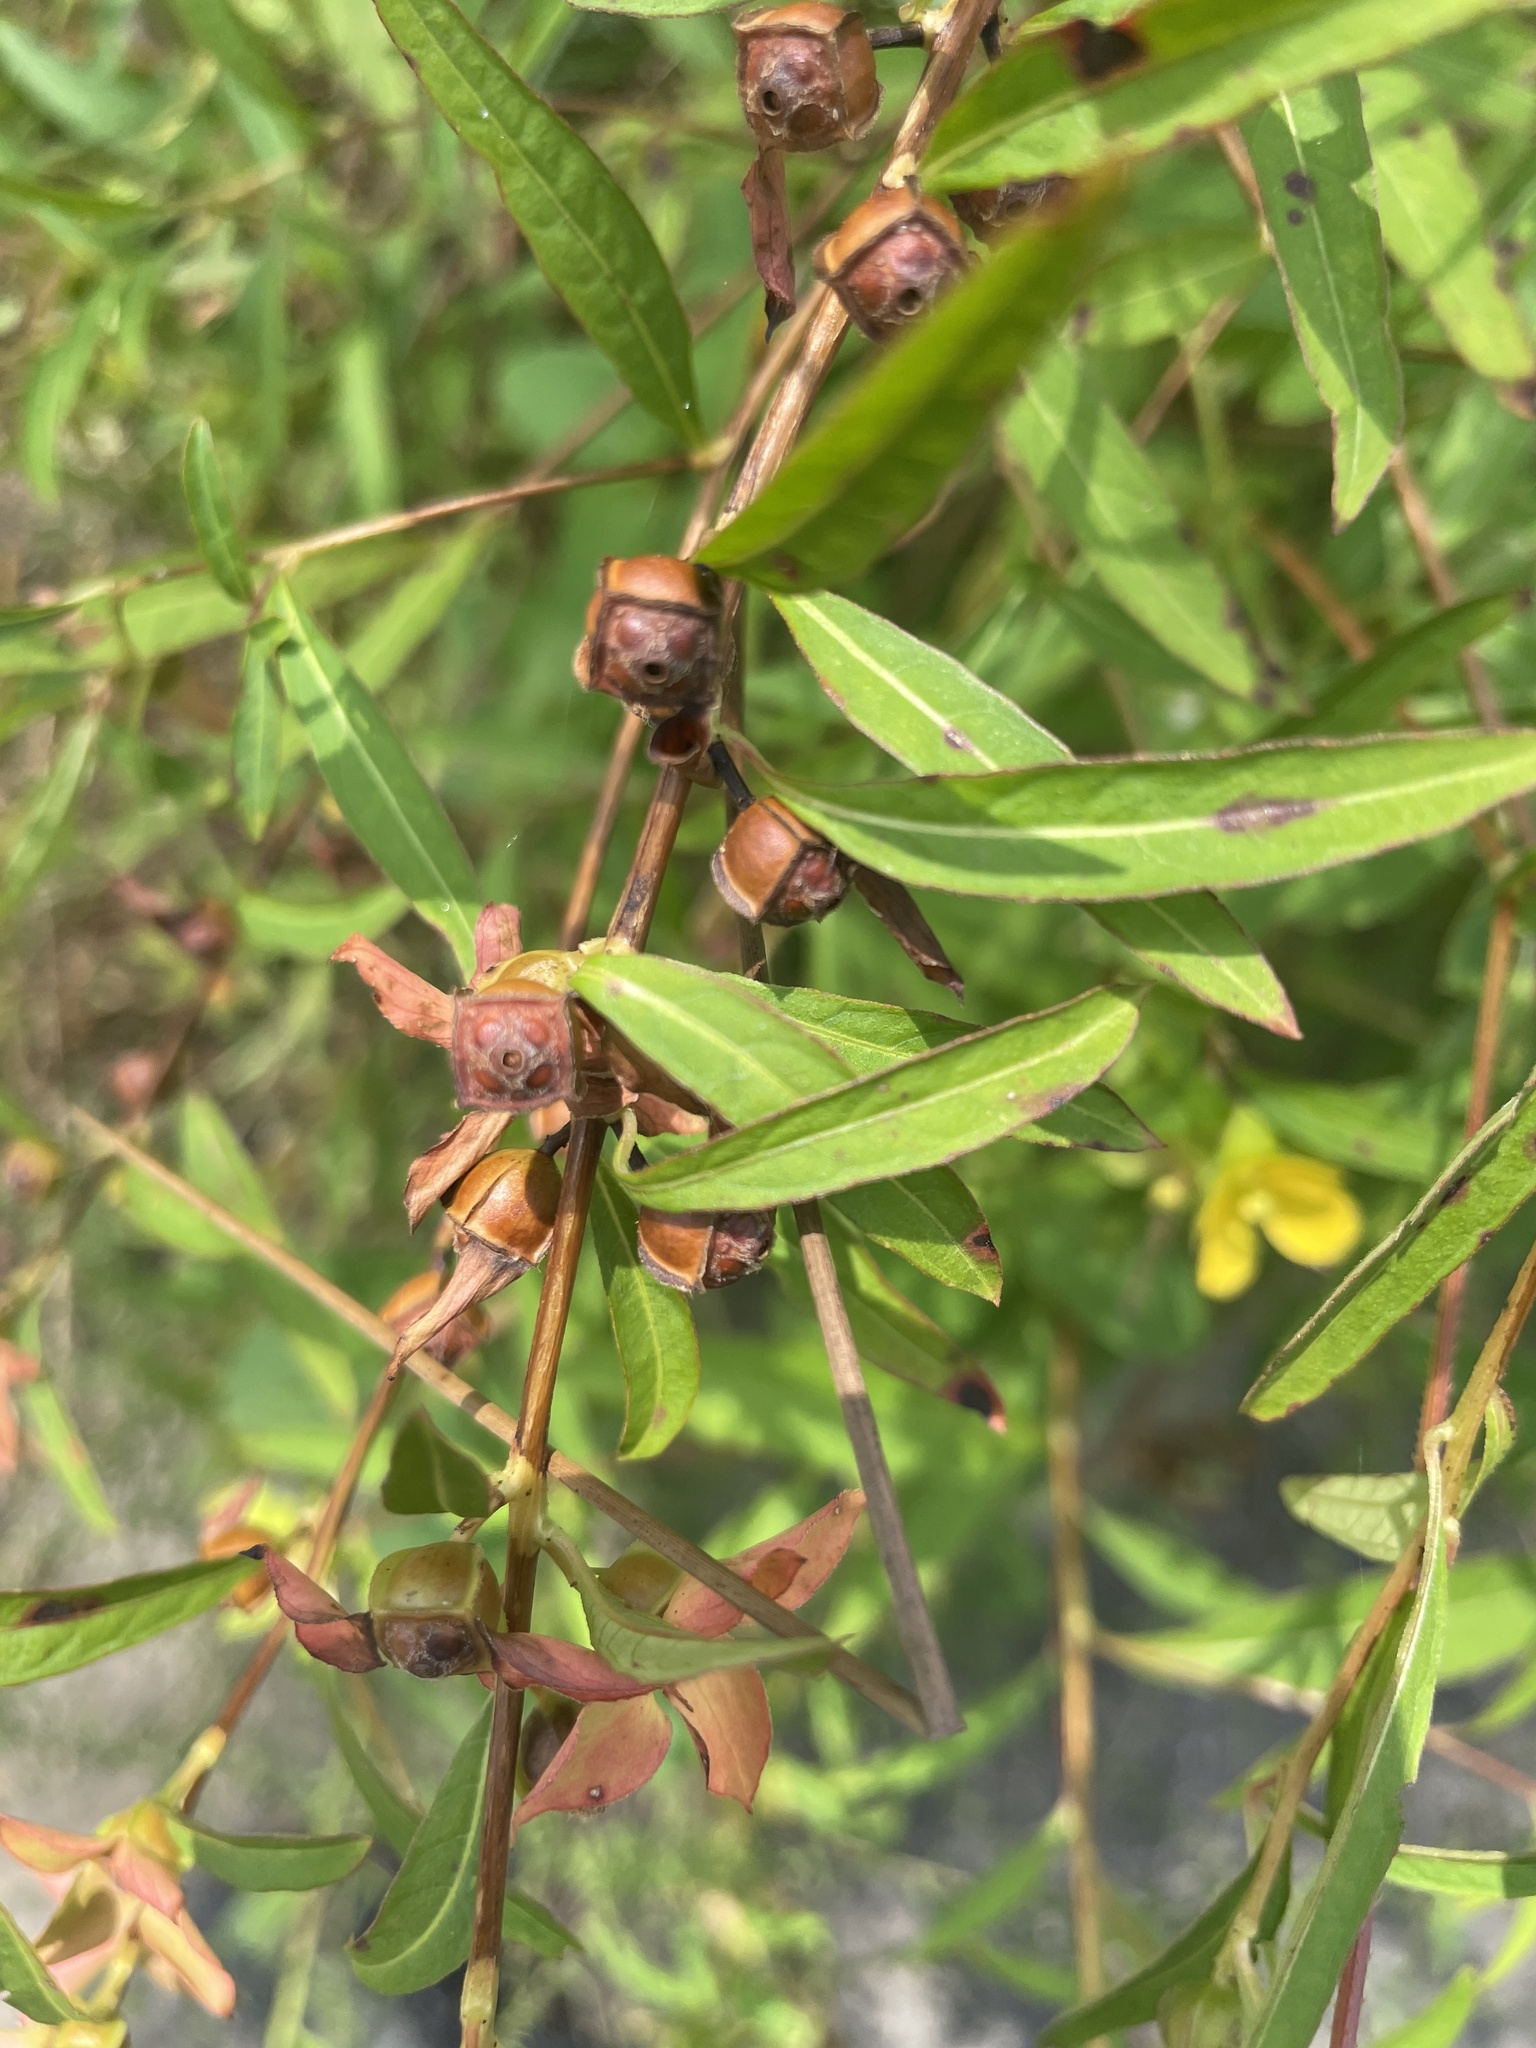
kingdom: Plantae
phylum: Tracheophyta
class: Magnoliopsida
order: Myrtales
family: Onagraceae
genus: Ludwigia
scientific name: Ludwigia alternifolia
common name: Rattlebox
